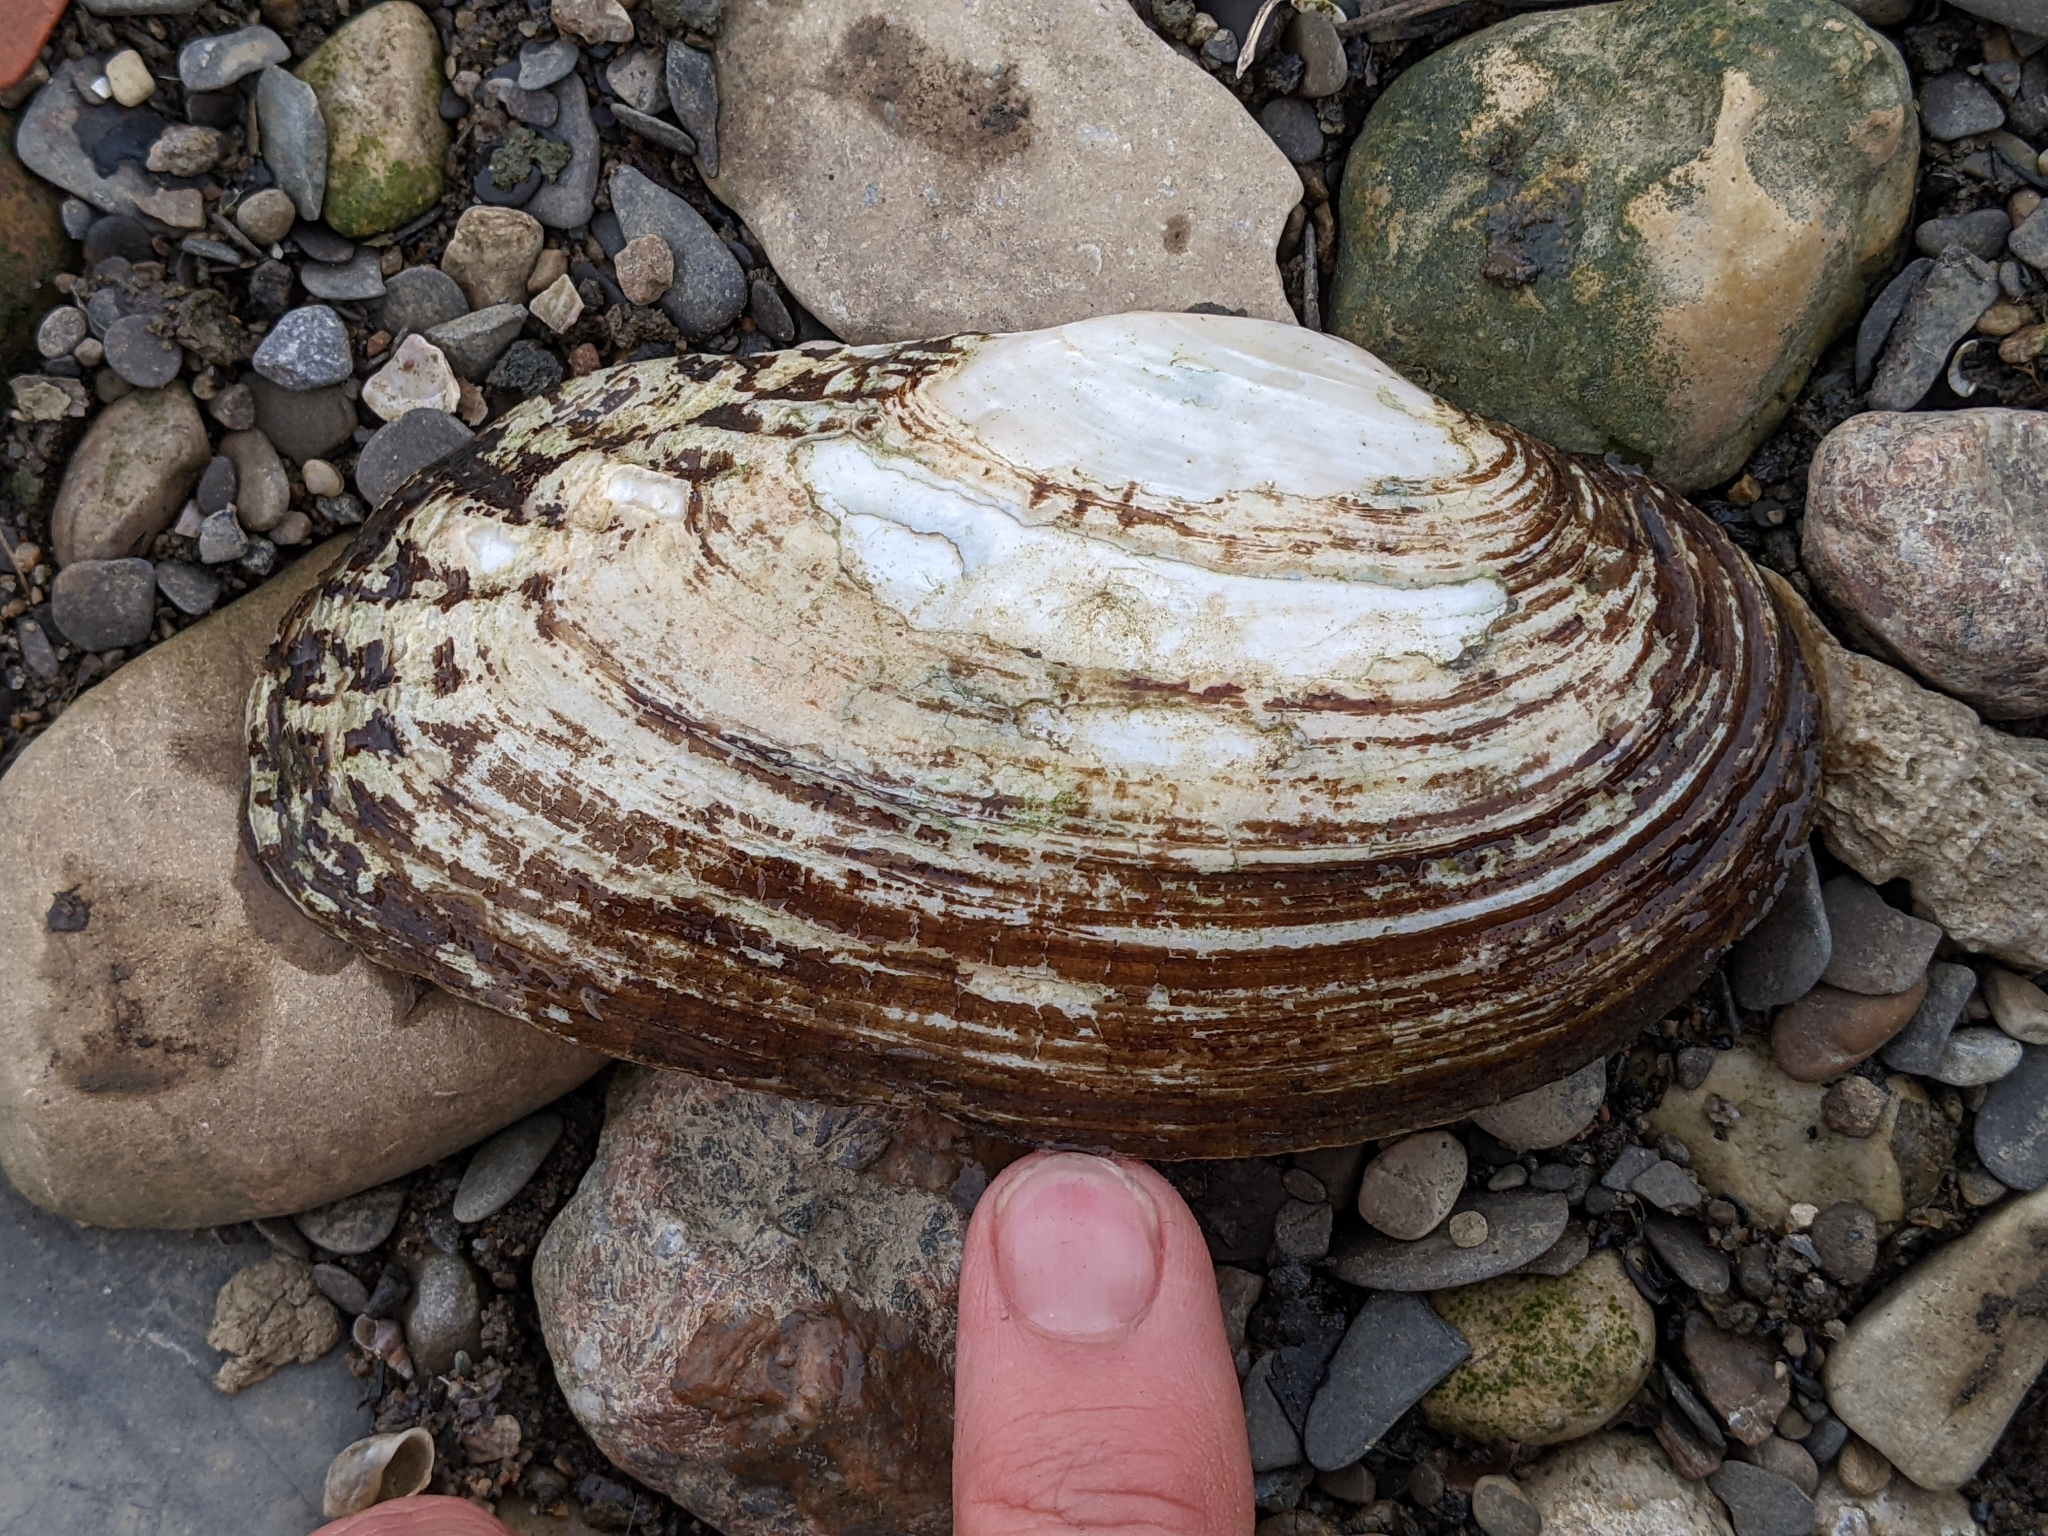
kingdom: Animalia
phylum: Mollusca
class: Bivalvia
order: Unionida
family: Unionidae
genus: Lasmigona
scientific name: Lasmigona costata
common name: Flutedshell
